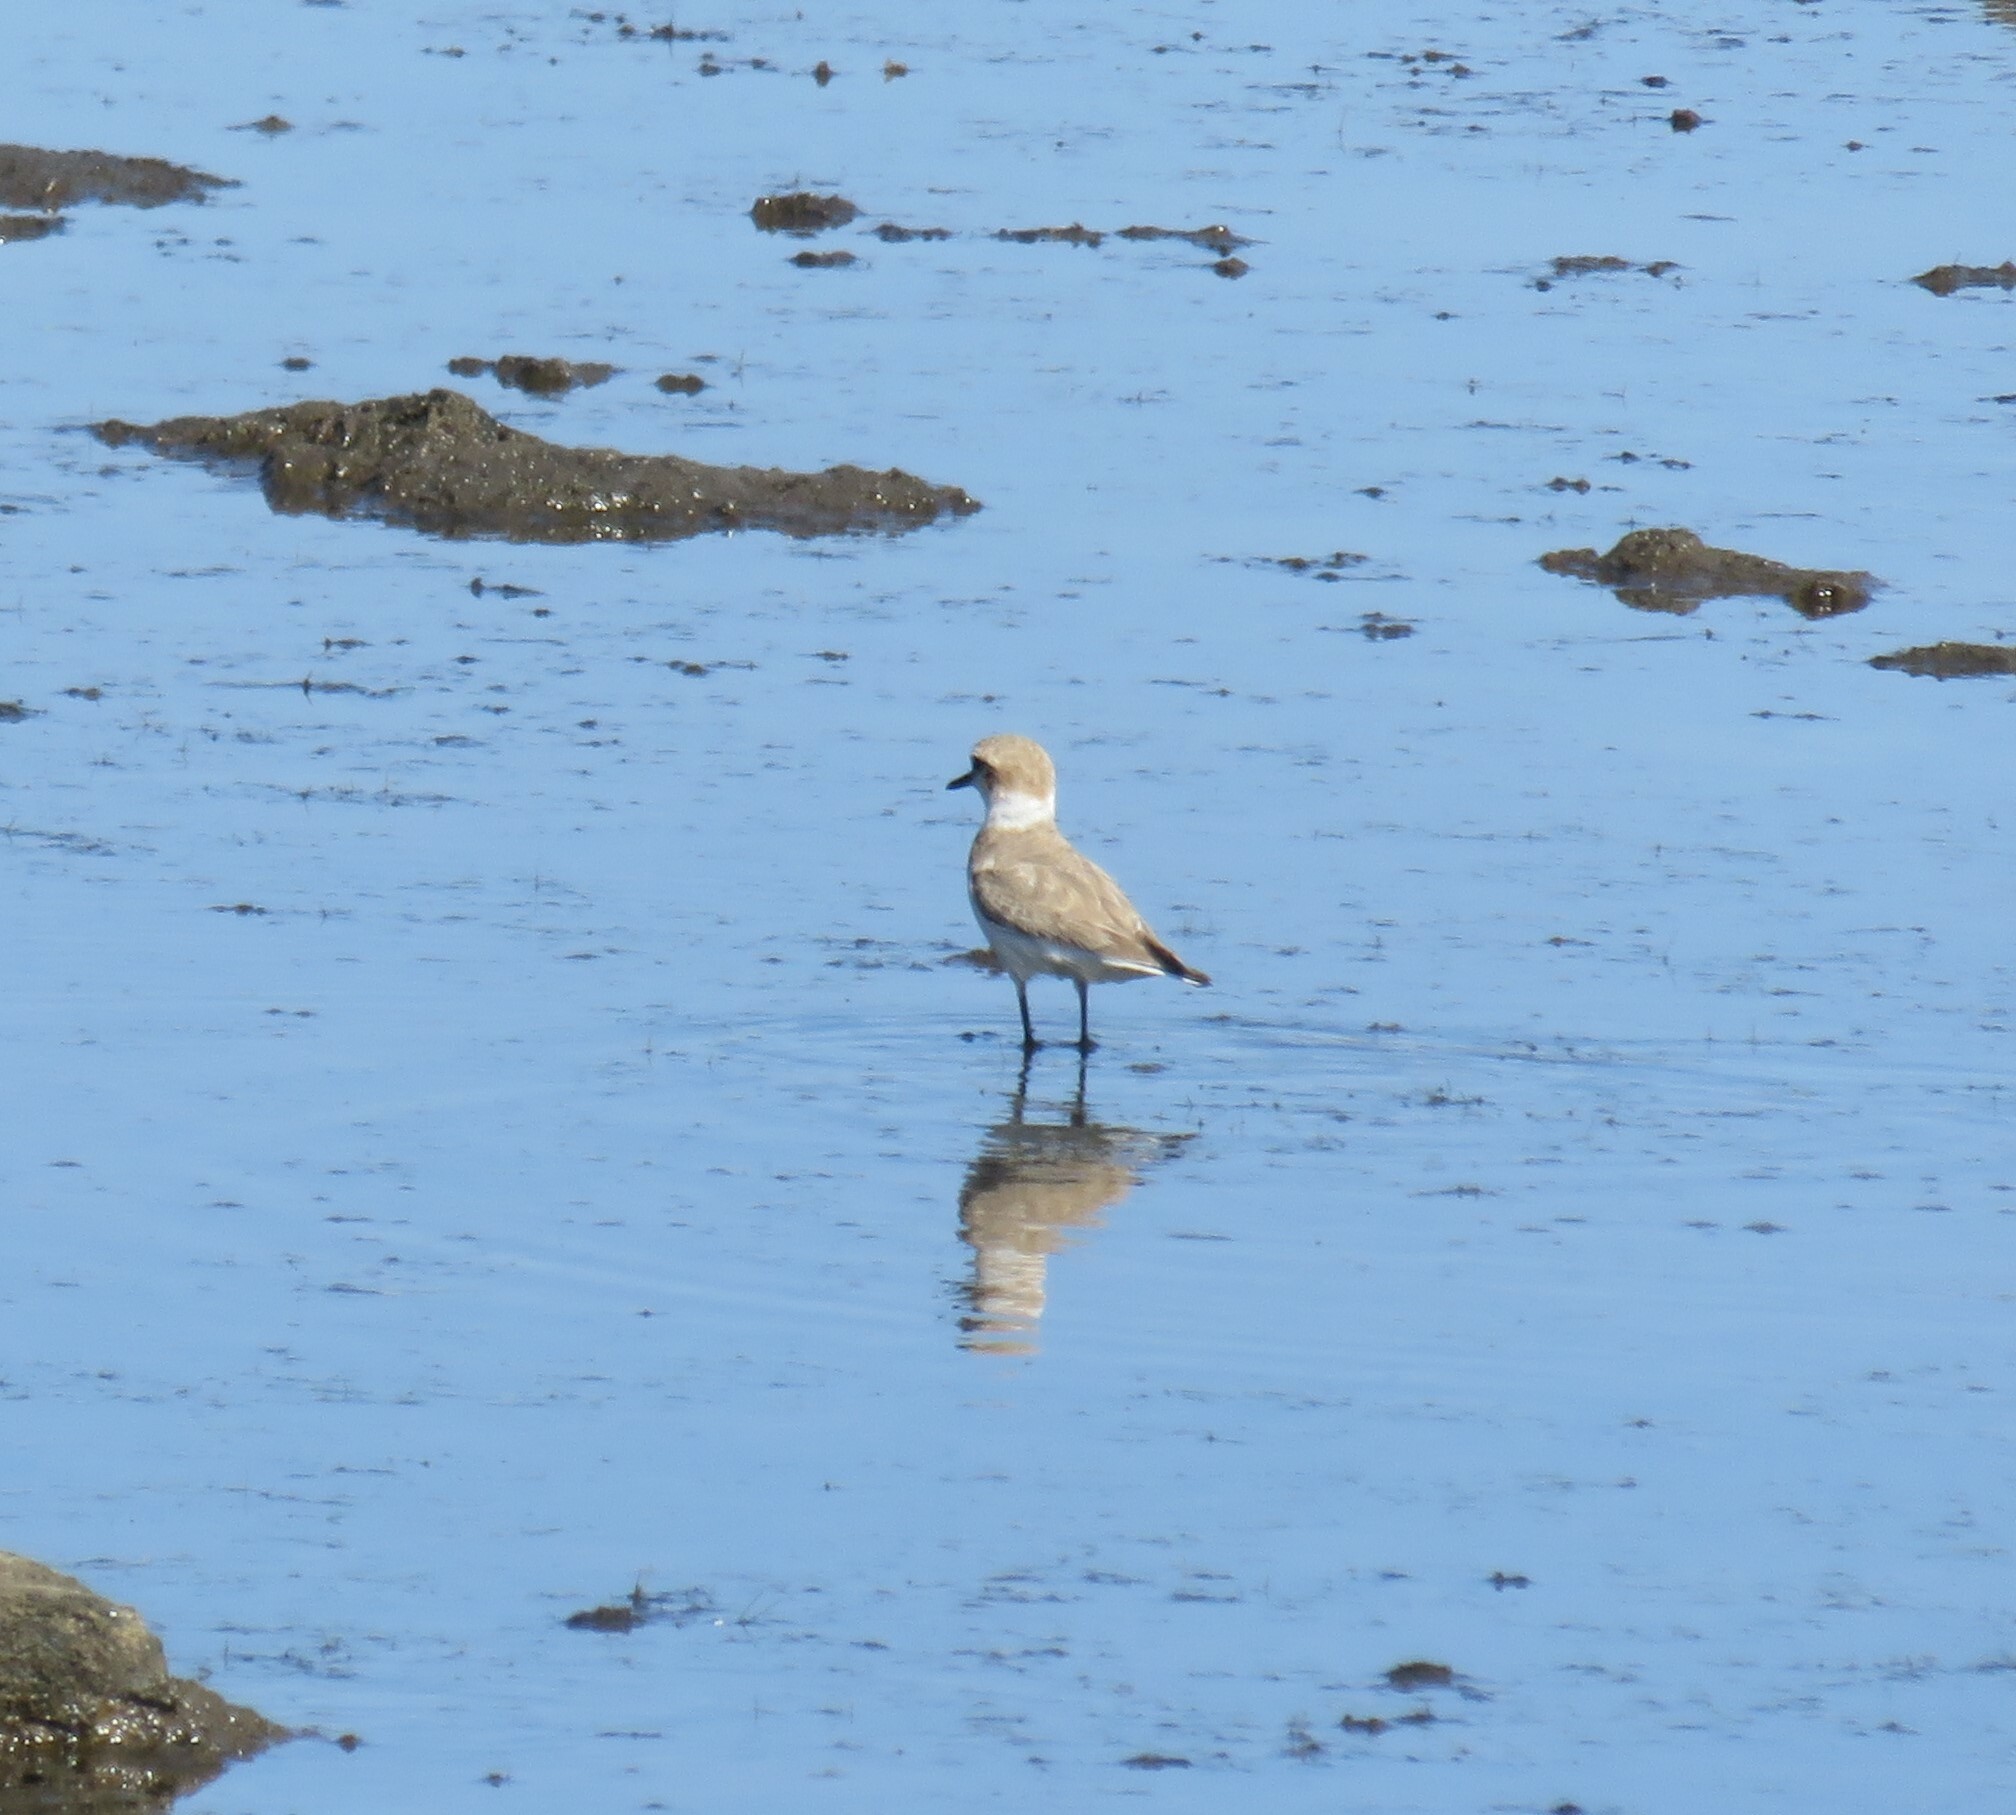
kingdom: Animalia
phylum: Chordata
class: Aves
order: Charadriiformes
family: Charadriidae
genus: Charadrius
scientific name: Charadrius alexandrinus
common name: Kentish plover
